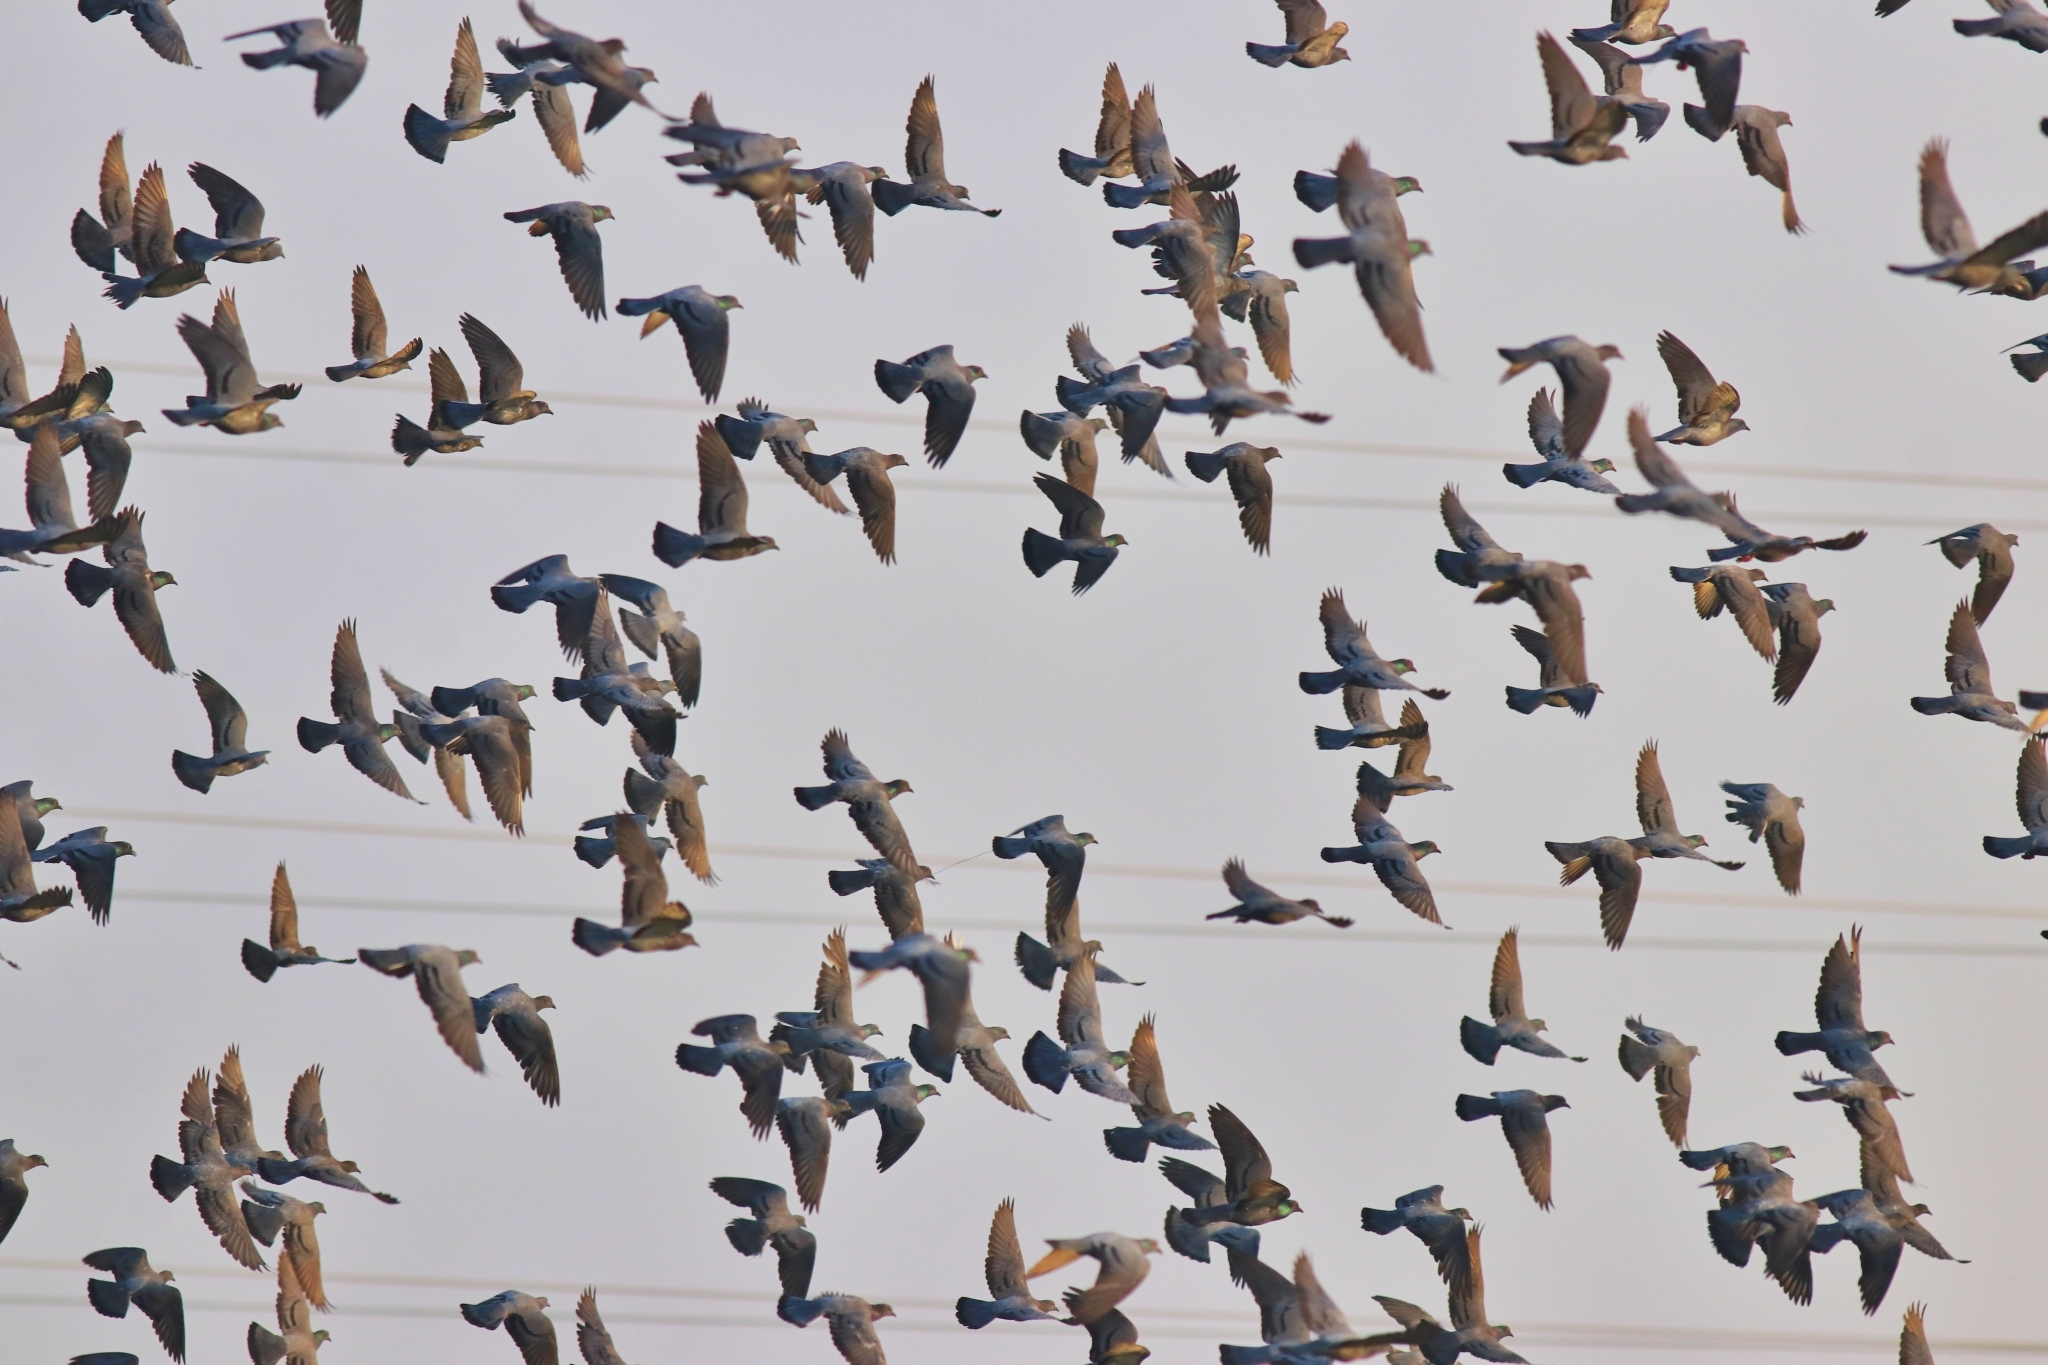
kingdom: Animalia
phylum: Chordata
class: Aves
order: Columbiformes
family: Columbidae
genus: Columba
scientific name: Columba livia
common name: Rock pigeon
